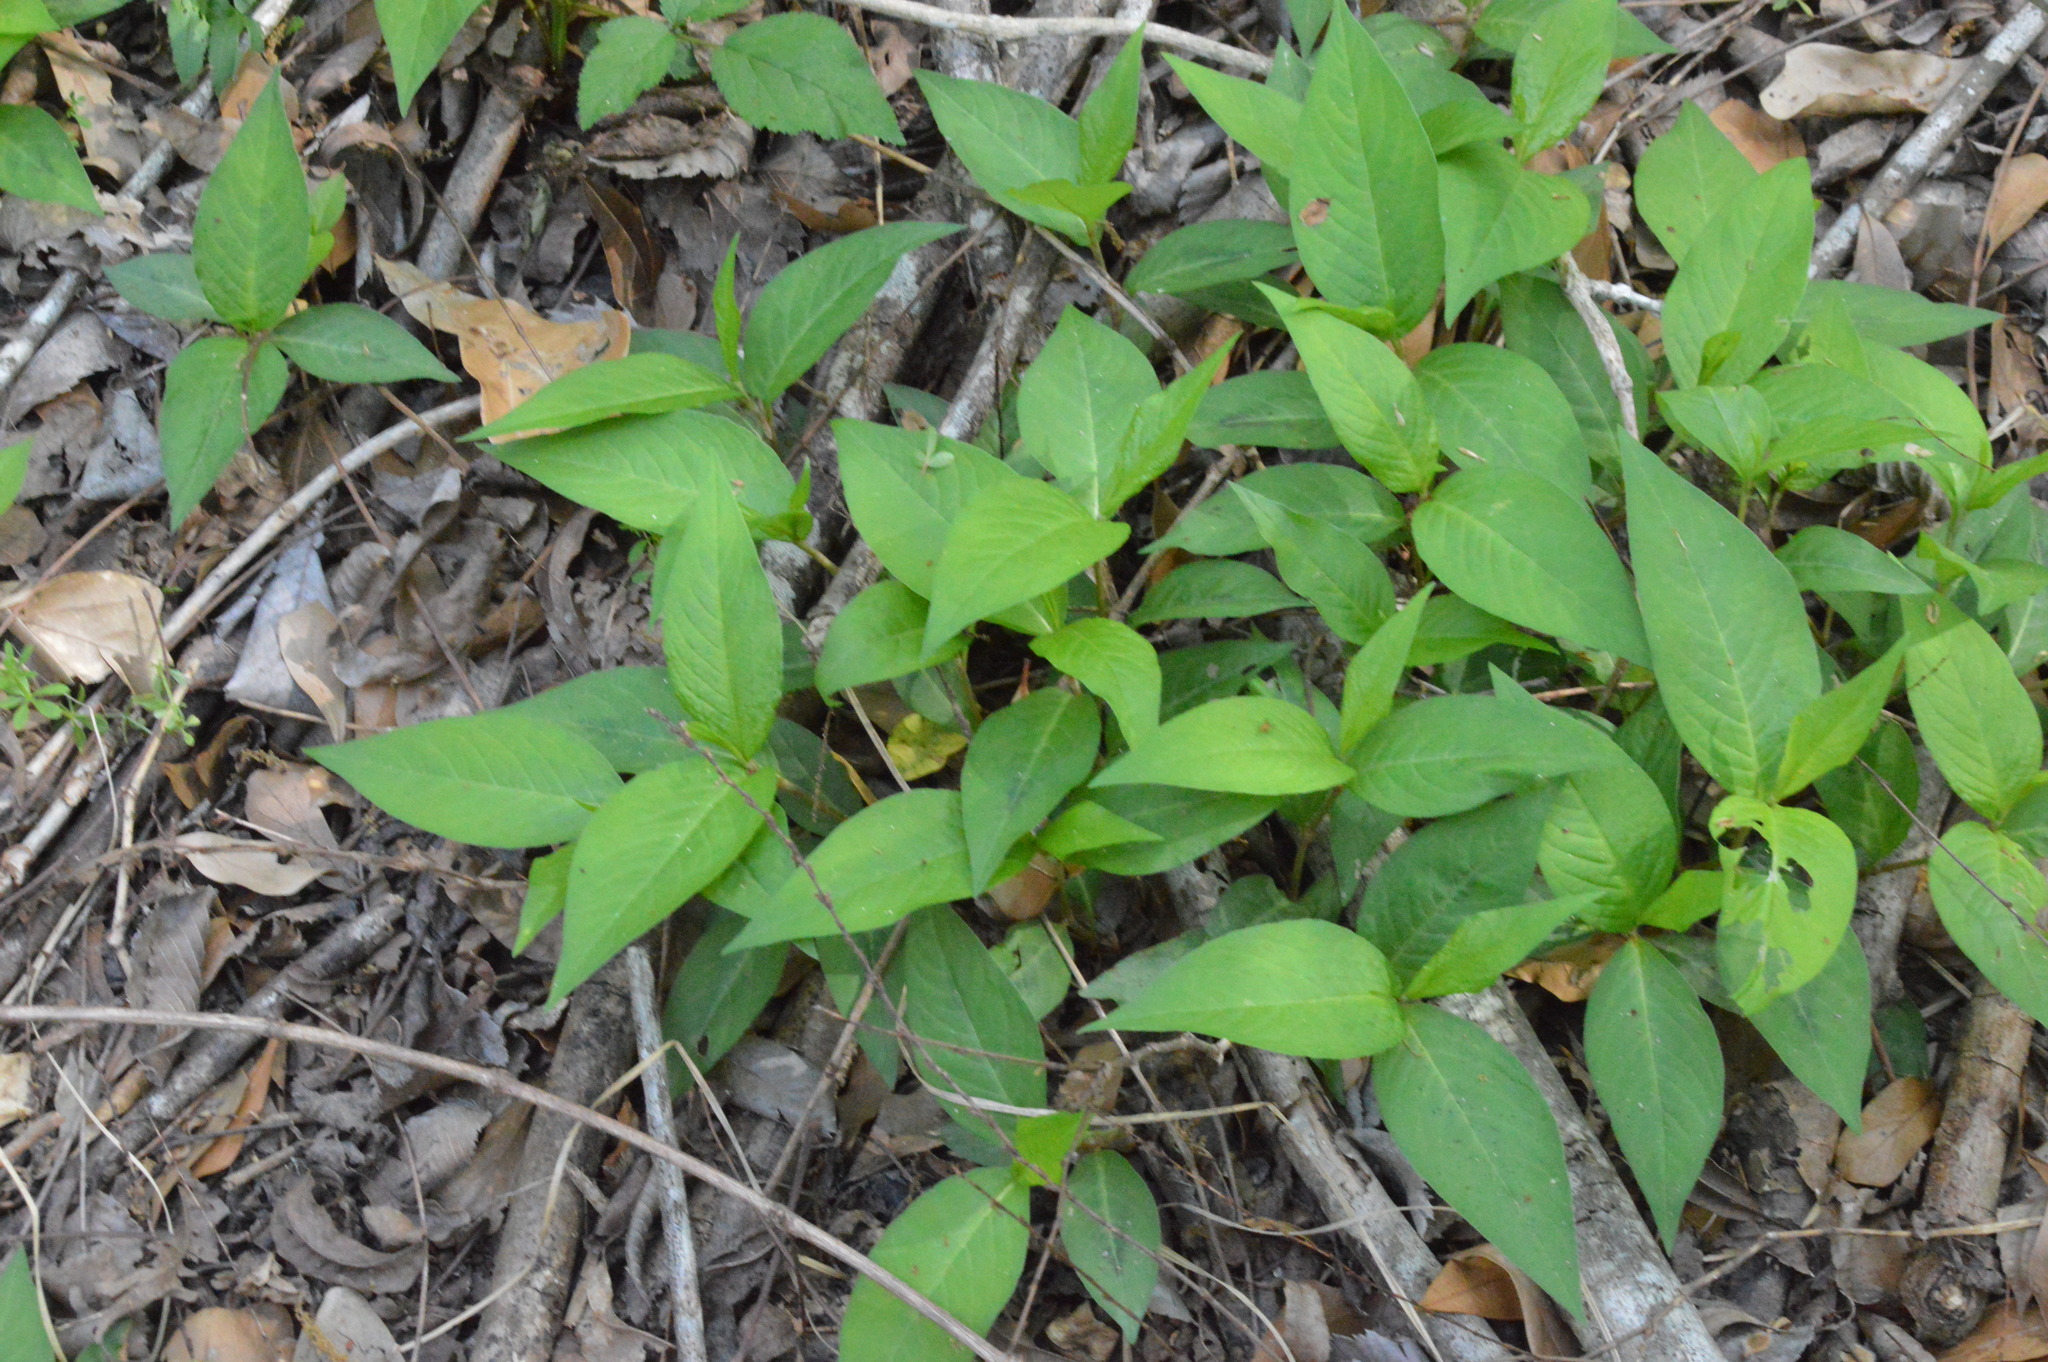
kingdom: Plantae
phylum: Tracheophyta
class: Magnoliopsida
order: Caryophyllales
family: Polygonaceae
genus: Persicaria
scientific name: Persicaria virginiana
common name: Jumpseed
